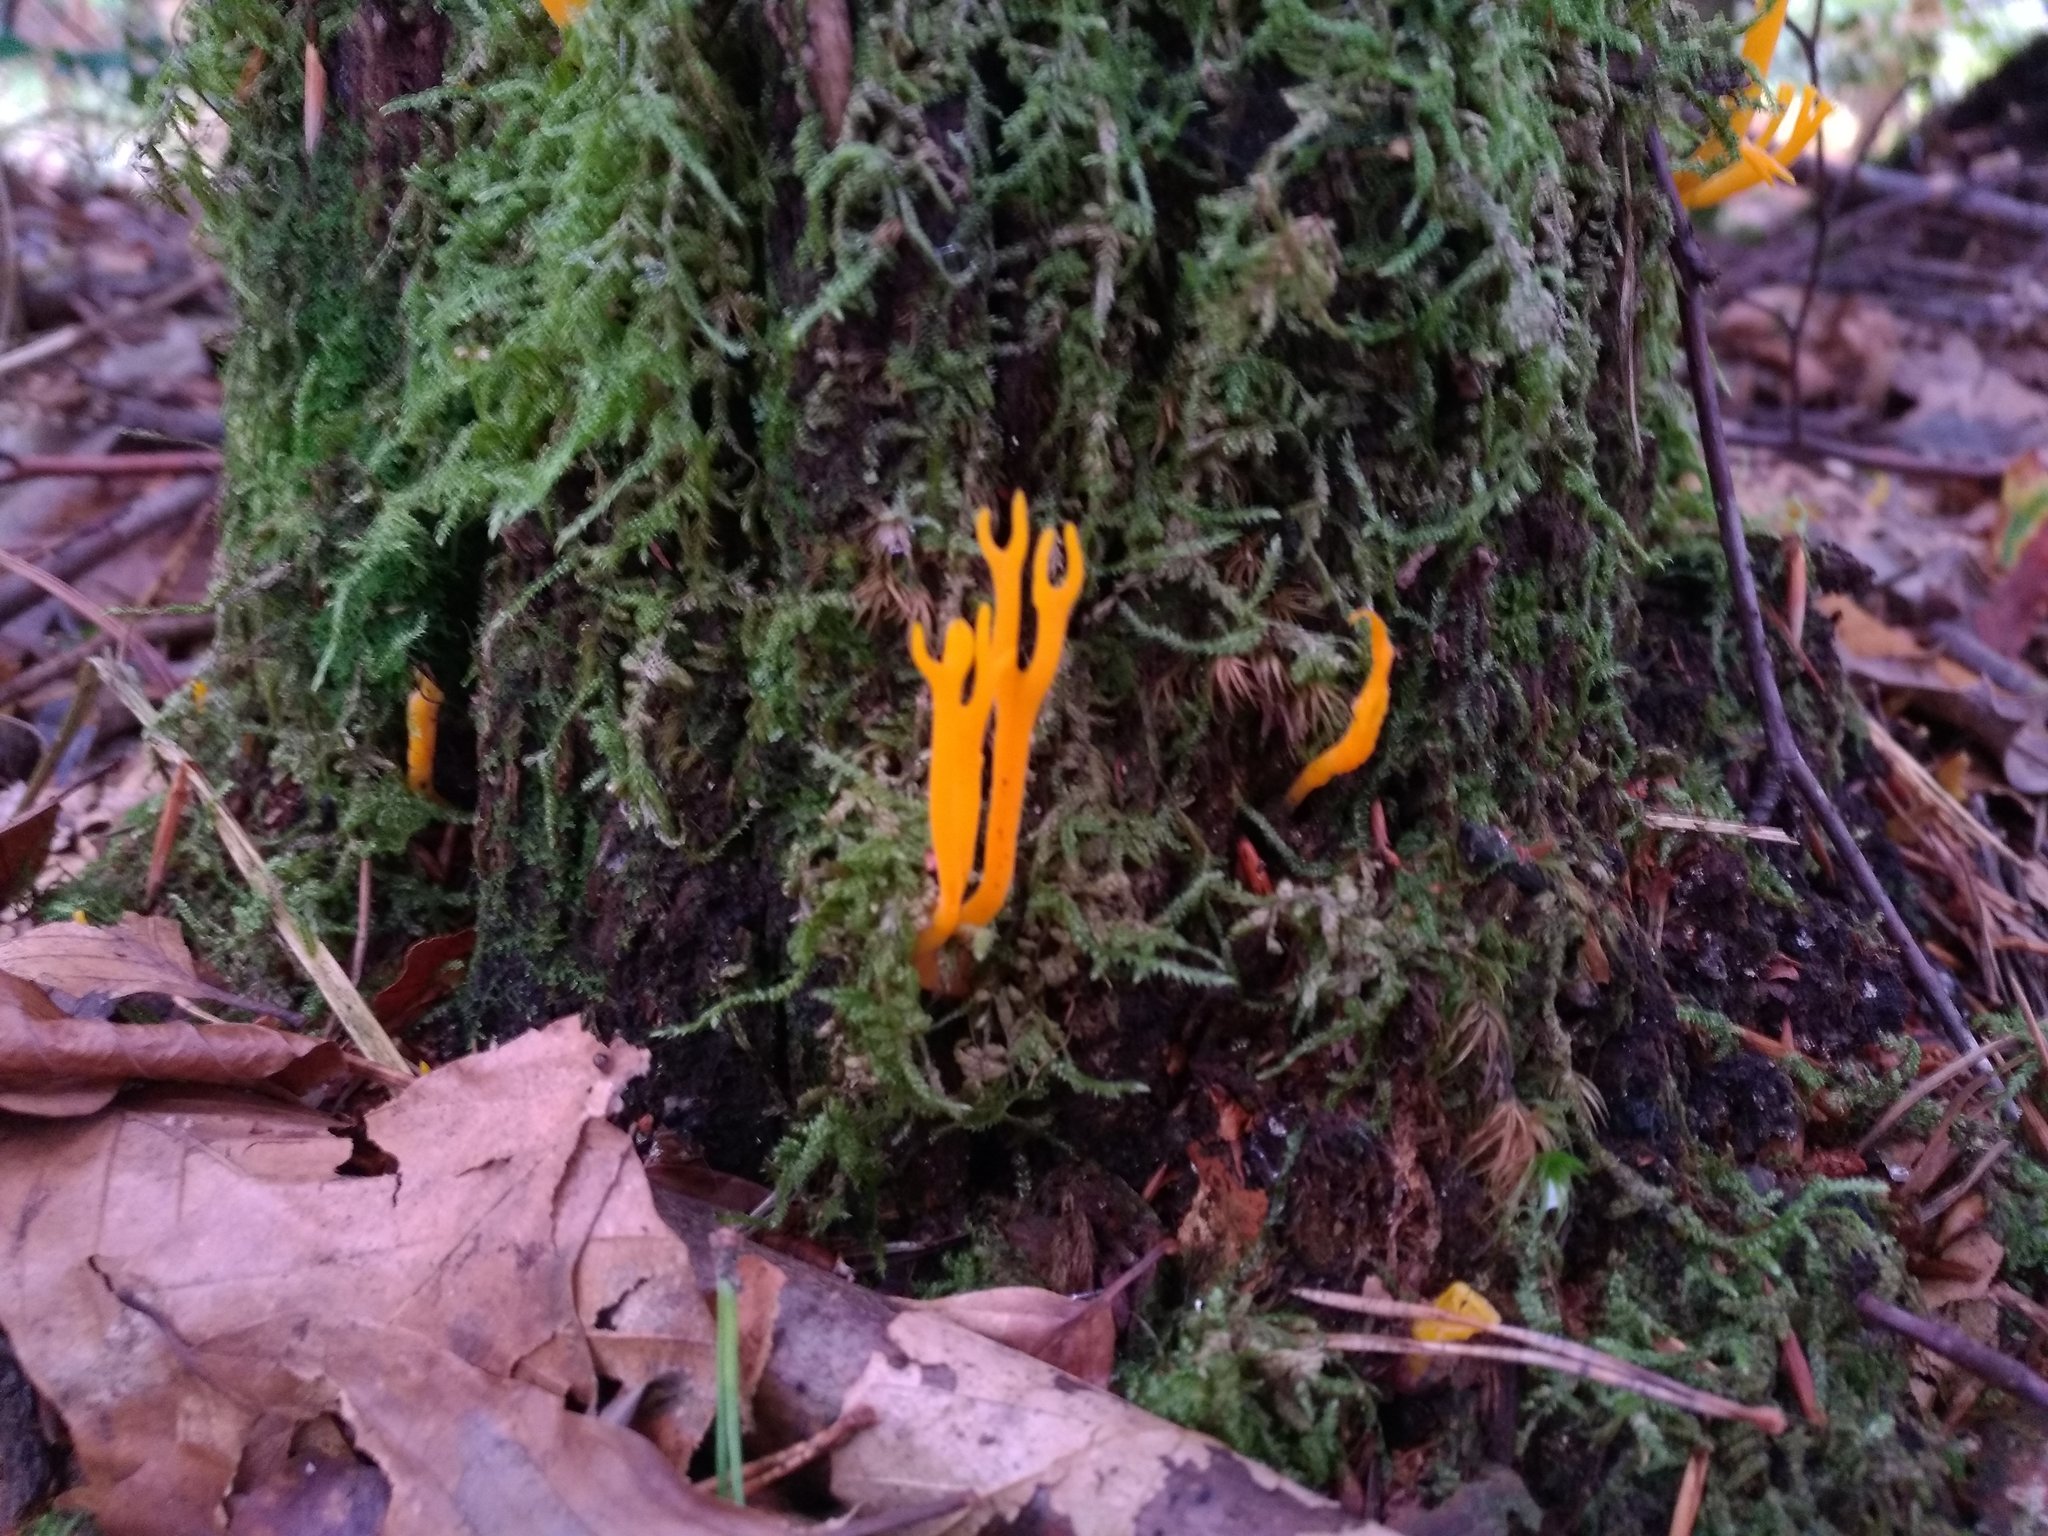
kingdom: Fungi
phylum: Basidiomycota
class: Dacrymycetes
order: Dacrymycetales
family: Dacrymycetaceae
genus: Calocera
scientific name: Calocera viscosa
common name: Yellow stagshorn
